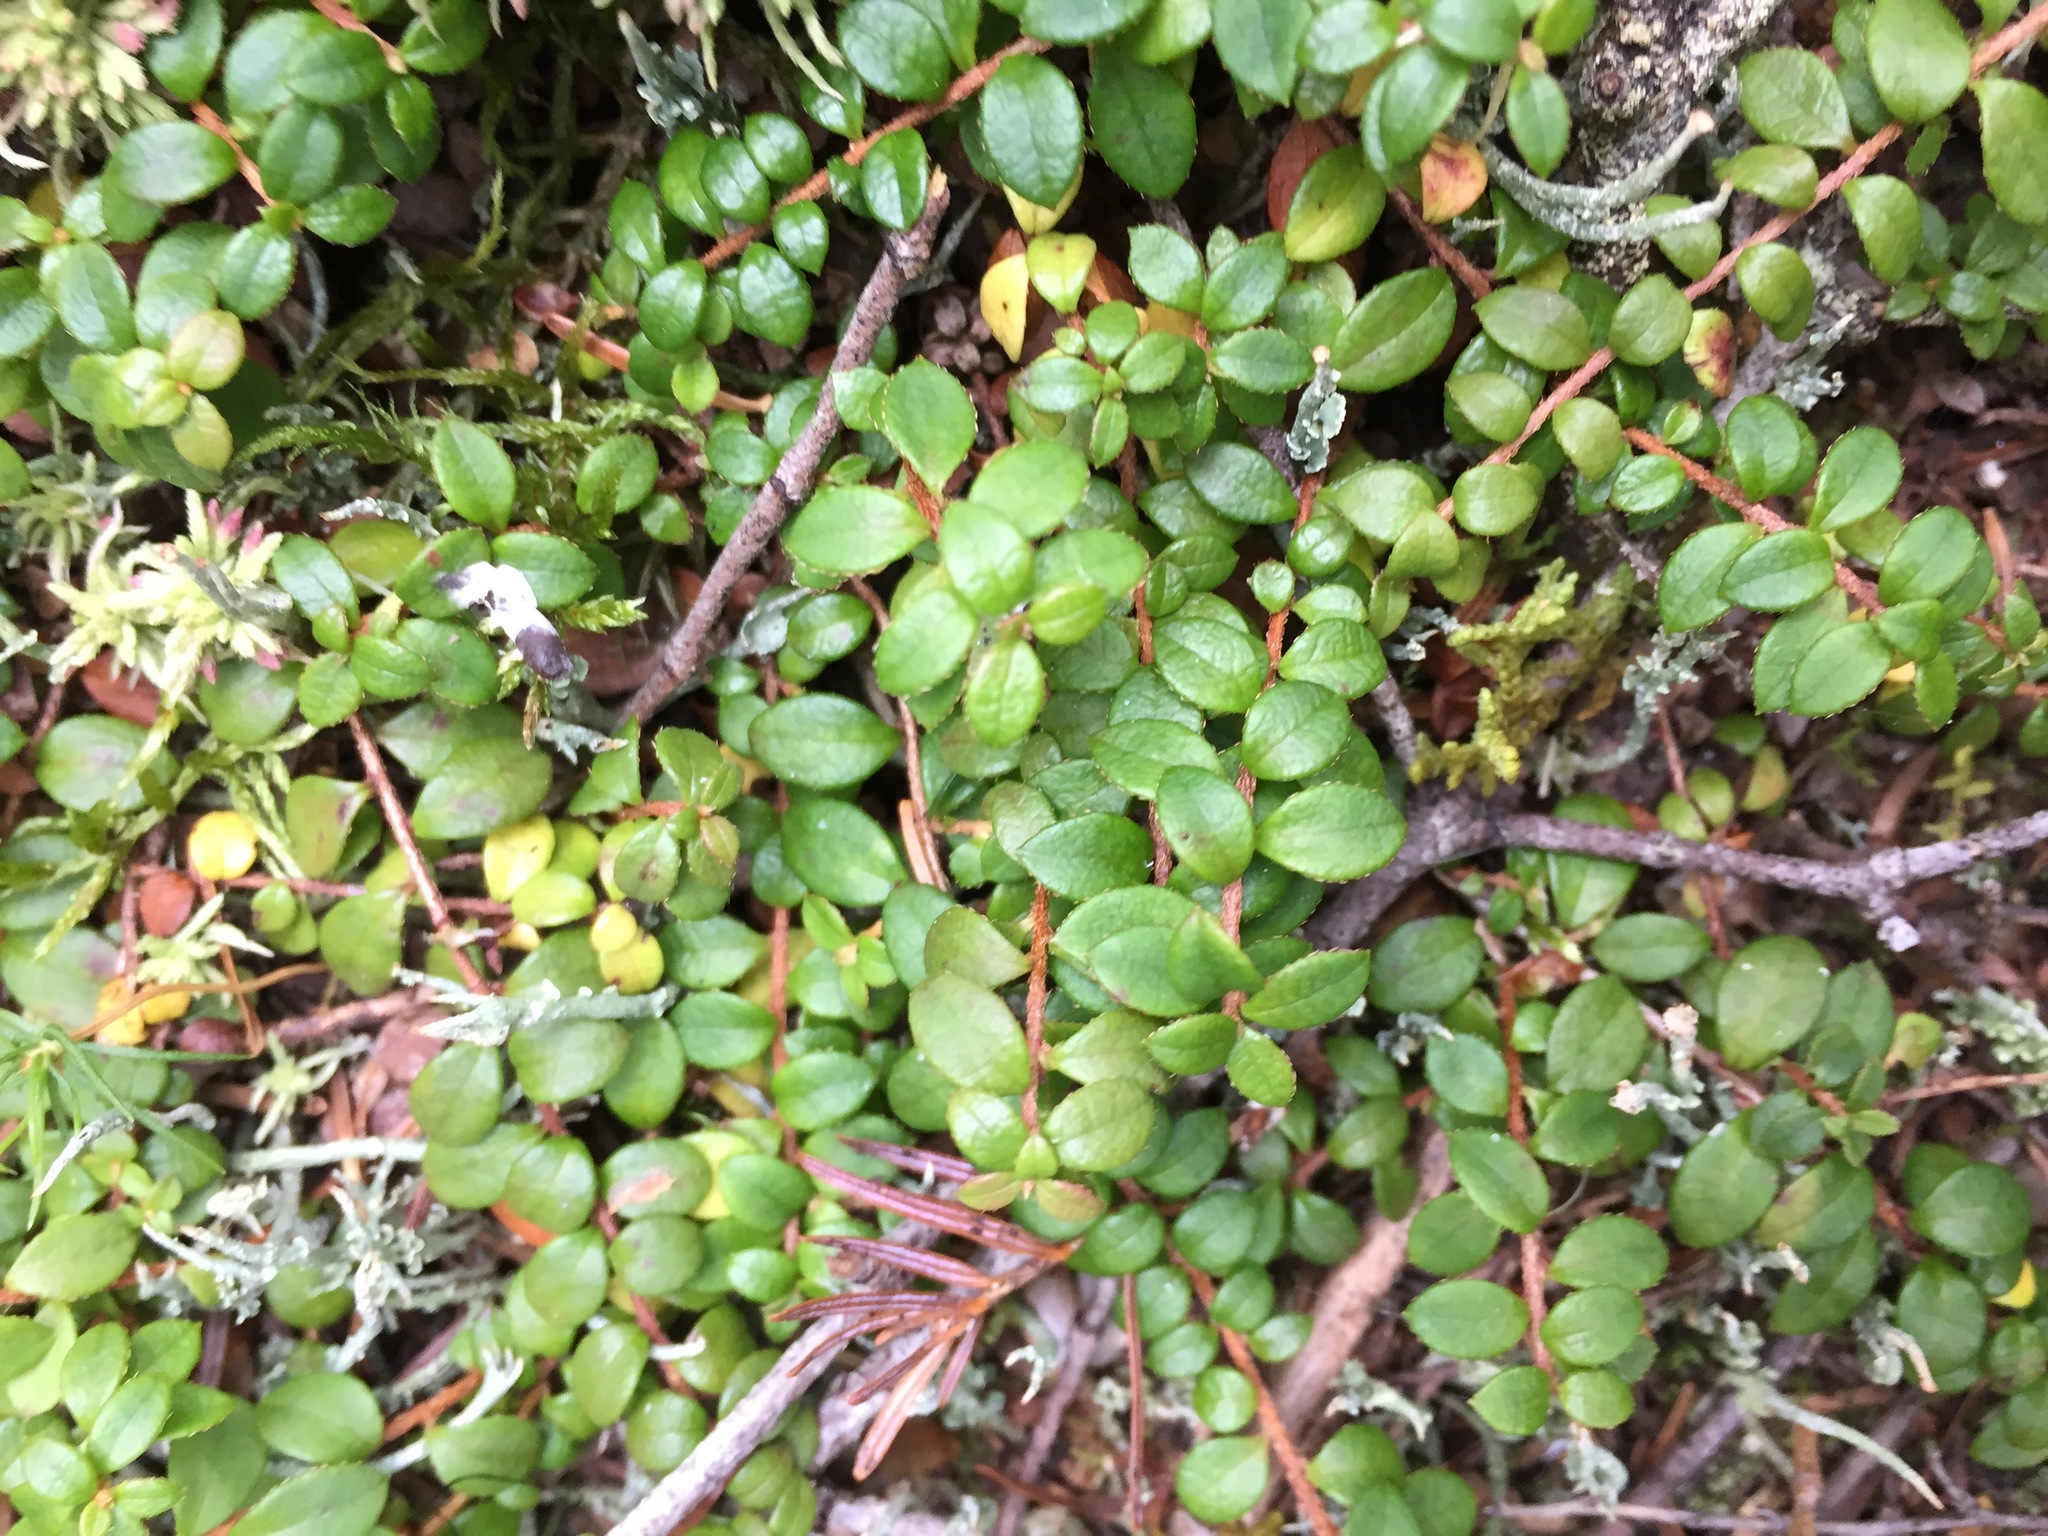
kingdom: Plantae
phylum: Tracheophyta
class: Magnoliopsida
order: Ericales
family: Ericaceae
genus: Gaultheria
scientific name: Gaultheria hispidula
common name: Cancer wintergreen
